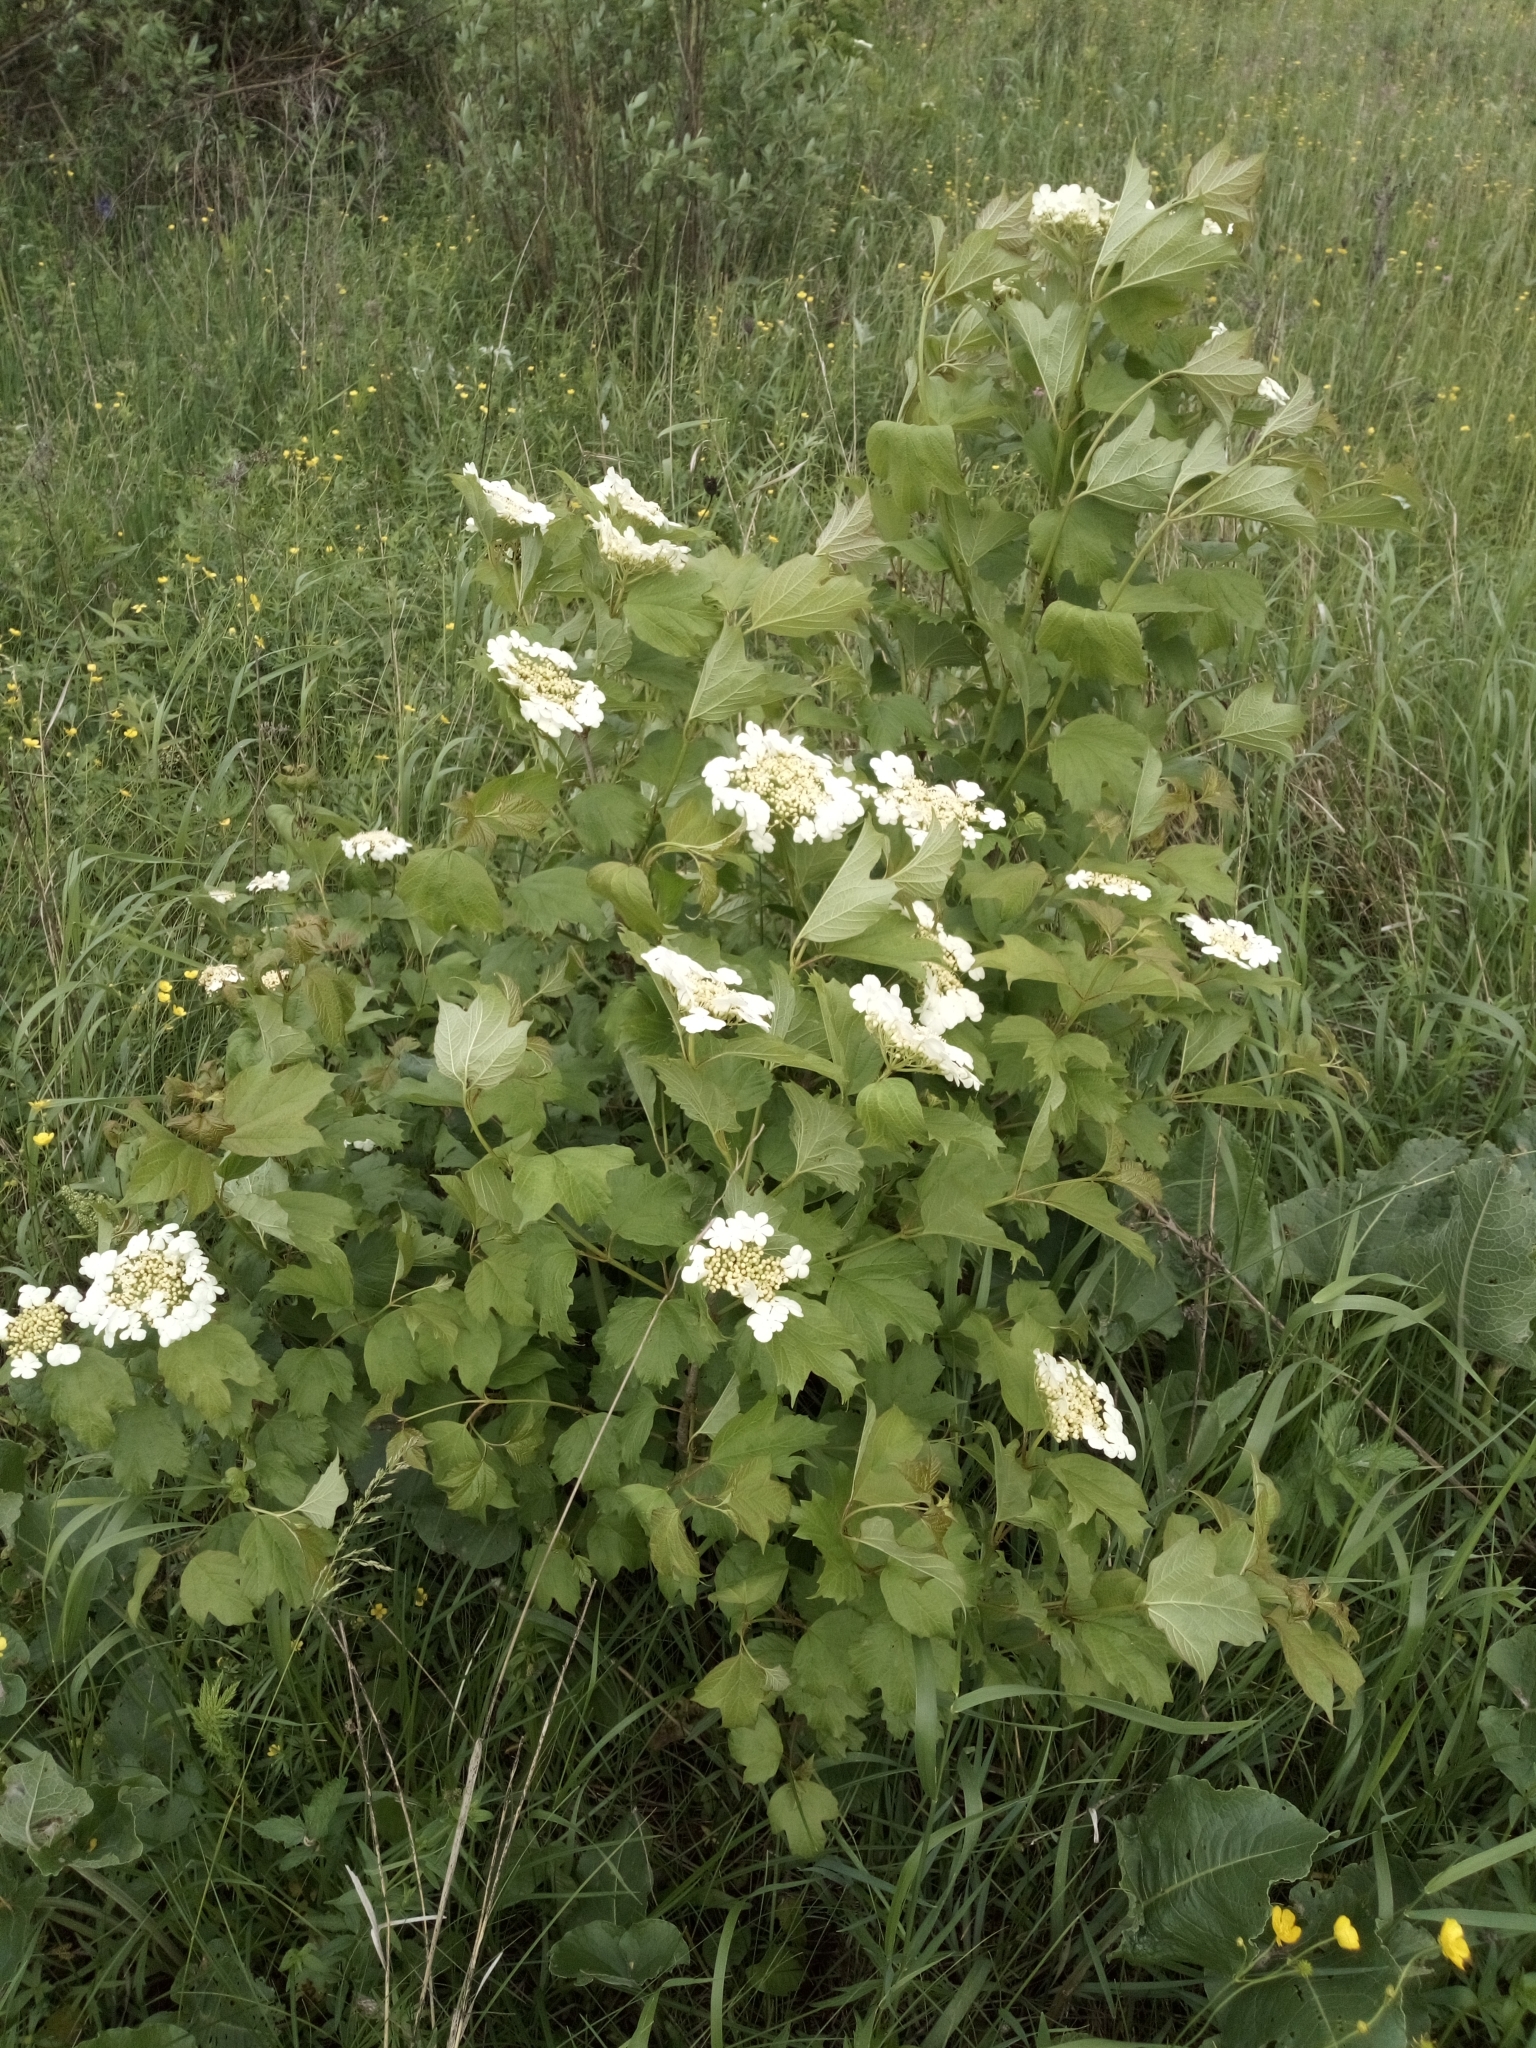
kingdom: Plantae
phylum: Tracheophyta
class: Magnoliopsida
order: Dipsacales
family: Viburnaceae
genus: Viburnum
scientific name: Viburnum opulus
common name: Guelder-rose
